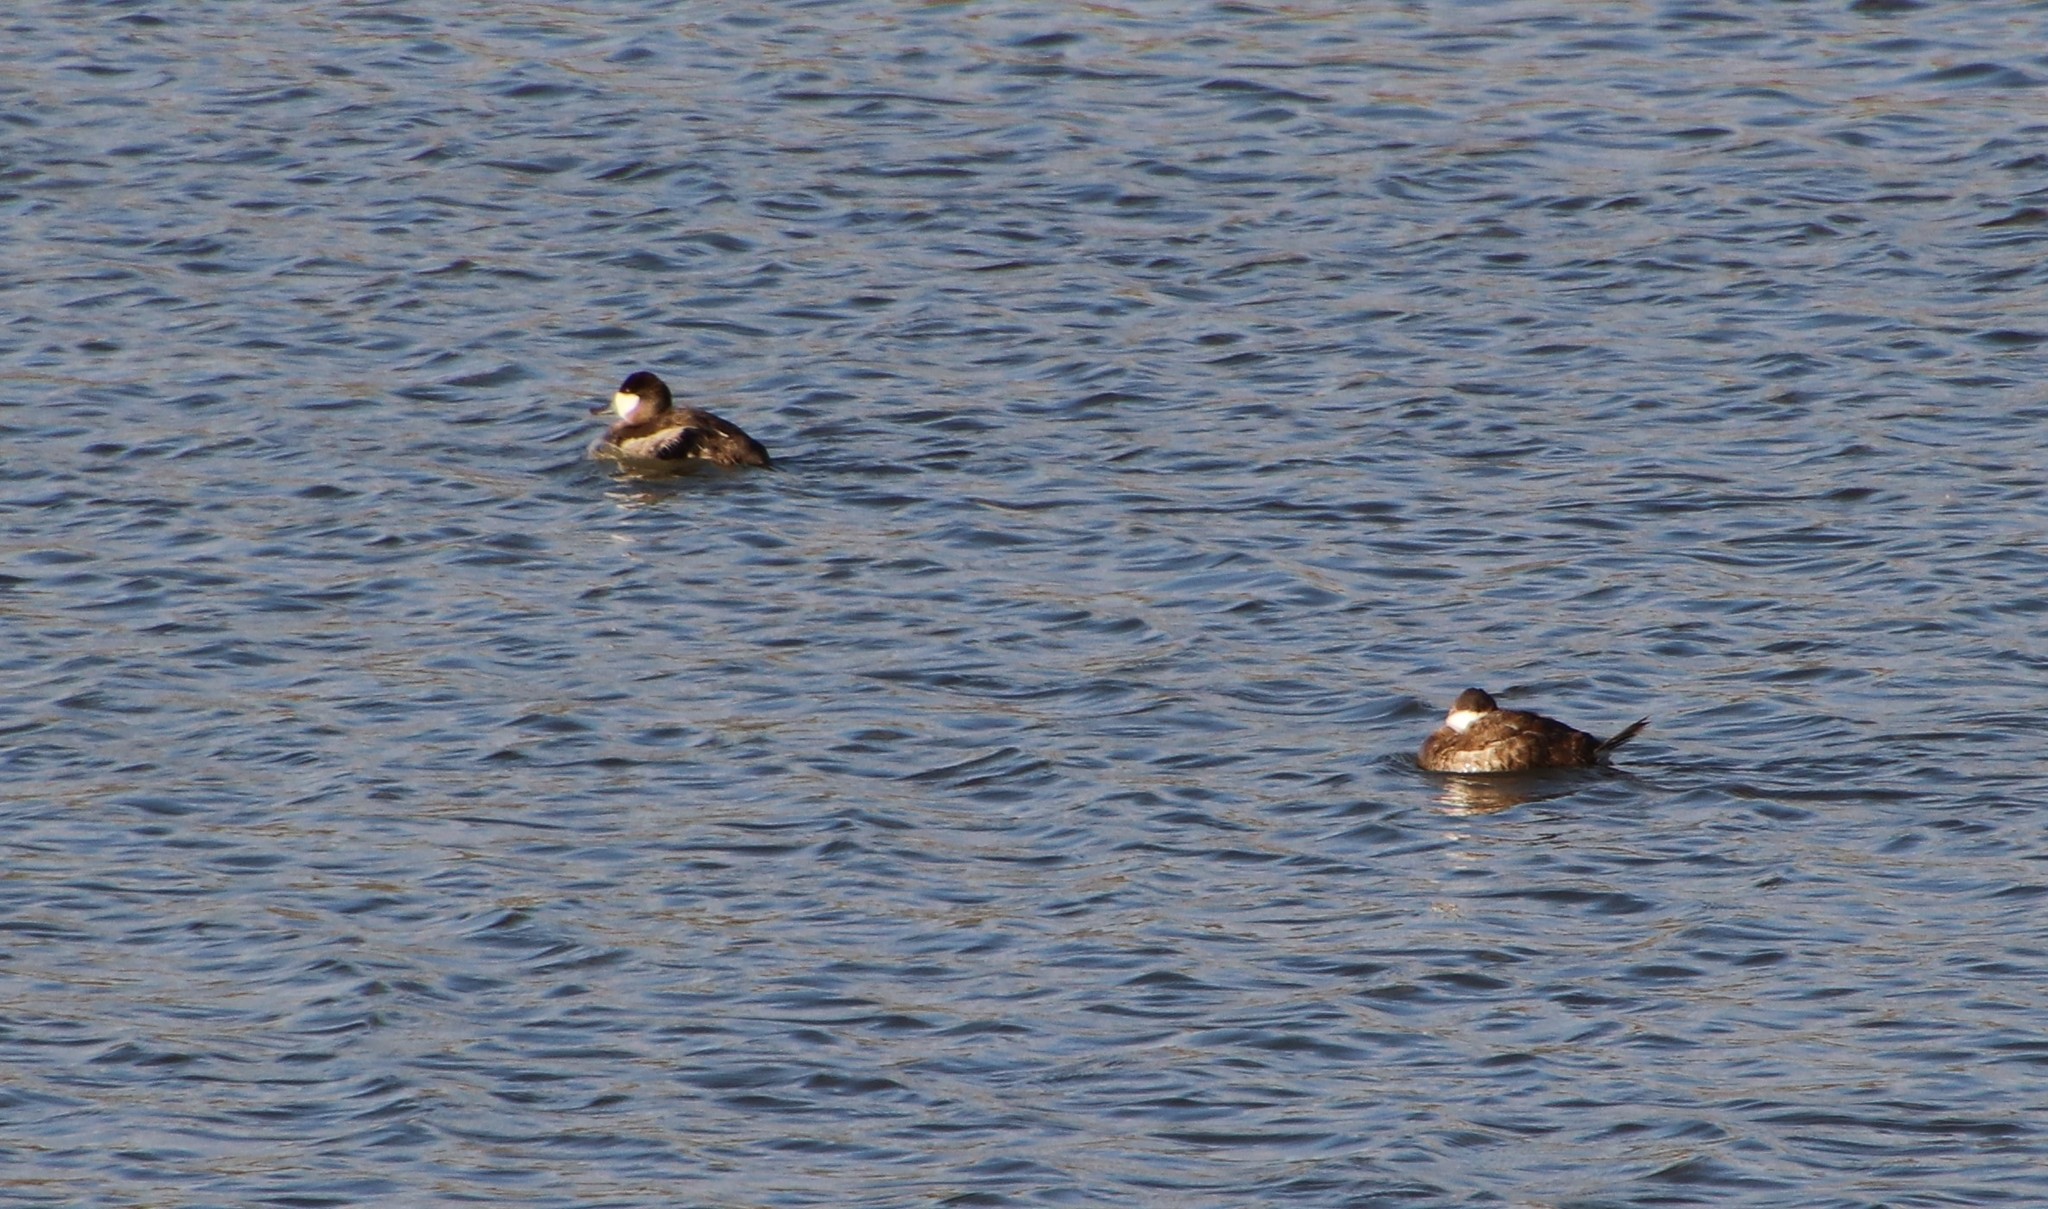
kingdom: Animalia
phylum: Chordata
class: Aves
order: Anseriformes
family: Anatidae
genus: Oxyura
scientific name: Oxyura jamaicensis
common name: Ruddy duck
